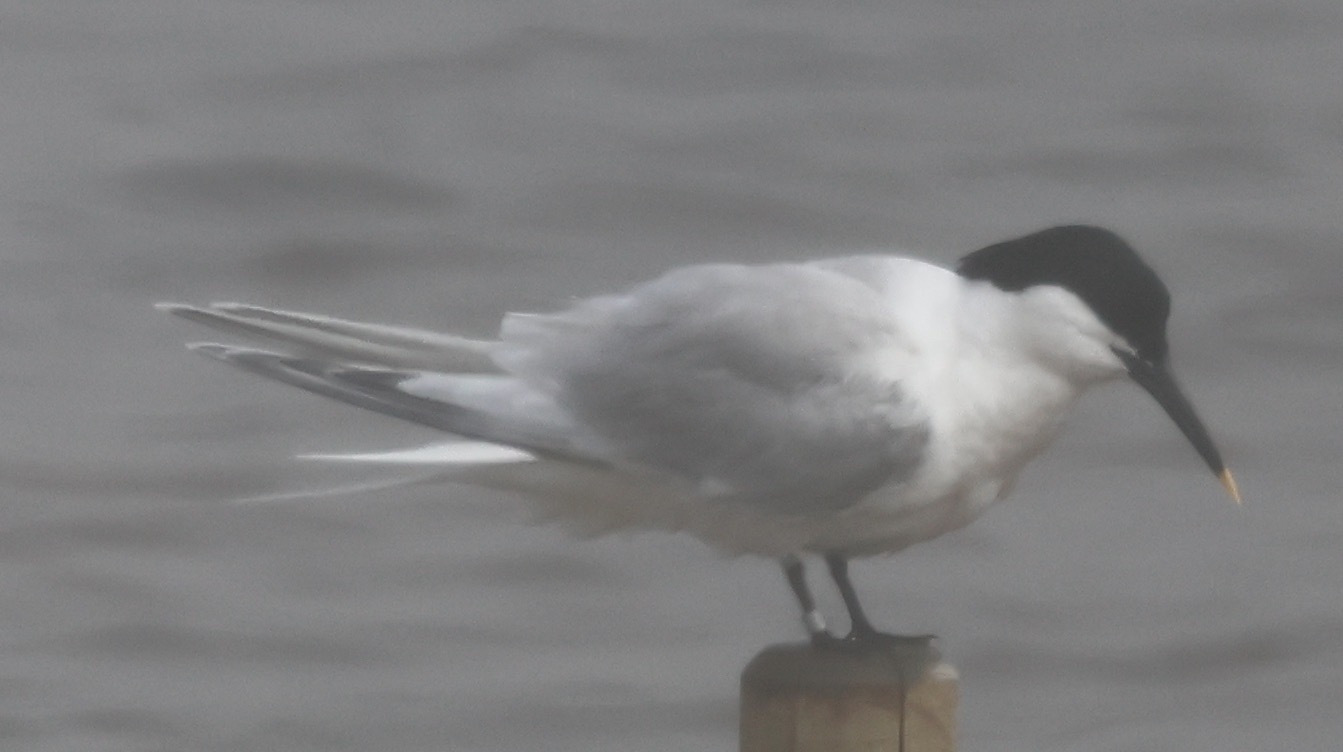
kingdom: Animalia
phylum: Chordata
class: Aves
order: Charadriiformes
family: Laridae
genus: Thalasseus
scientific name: Thalasseus sandvicensis
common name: Sandwich tern
